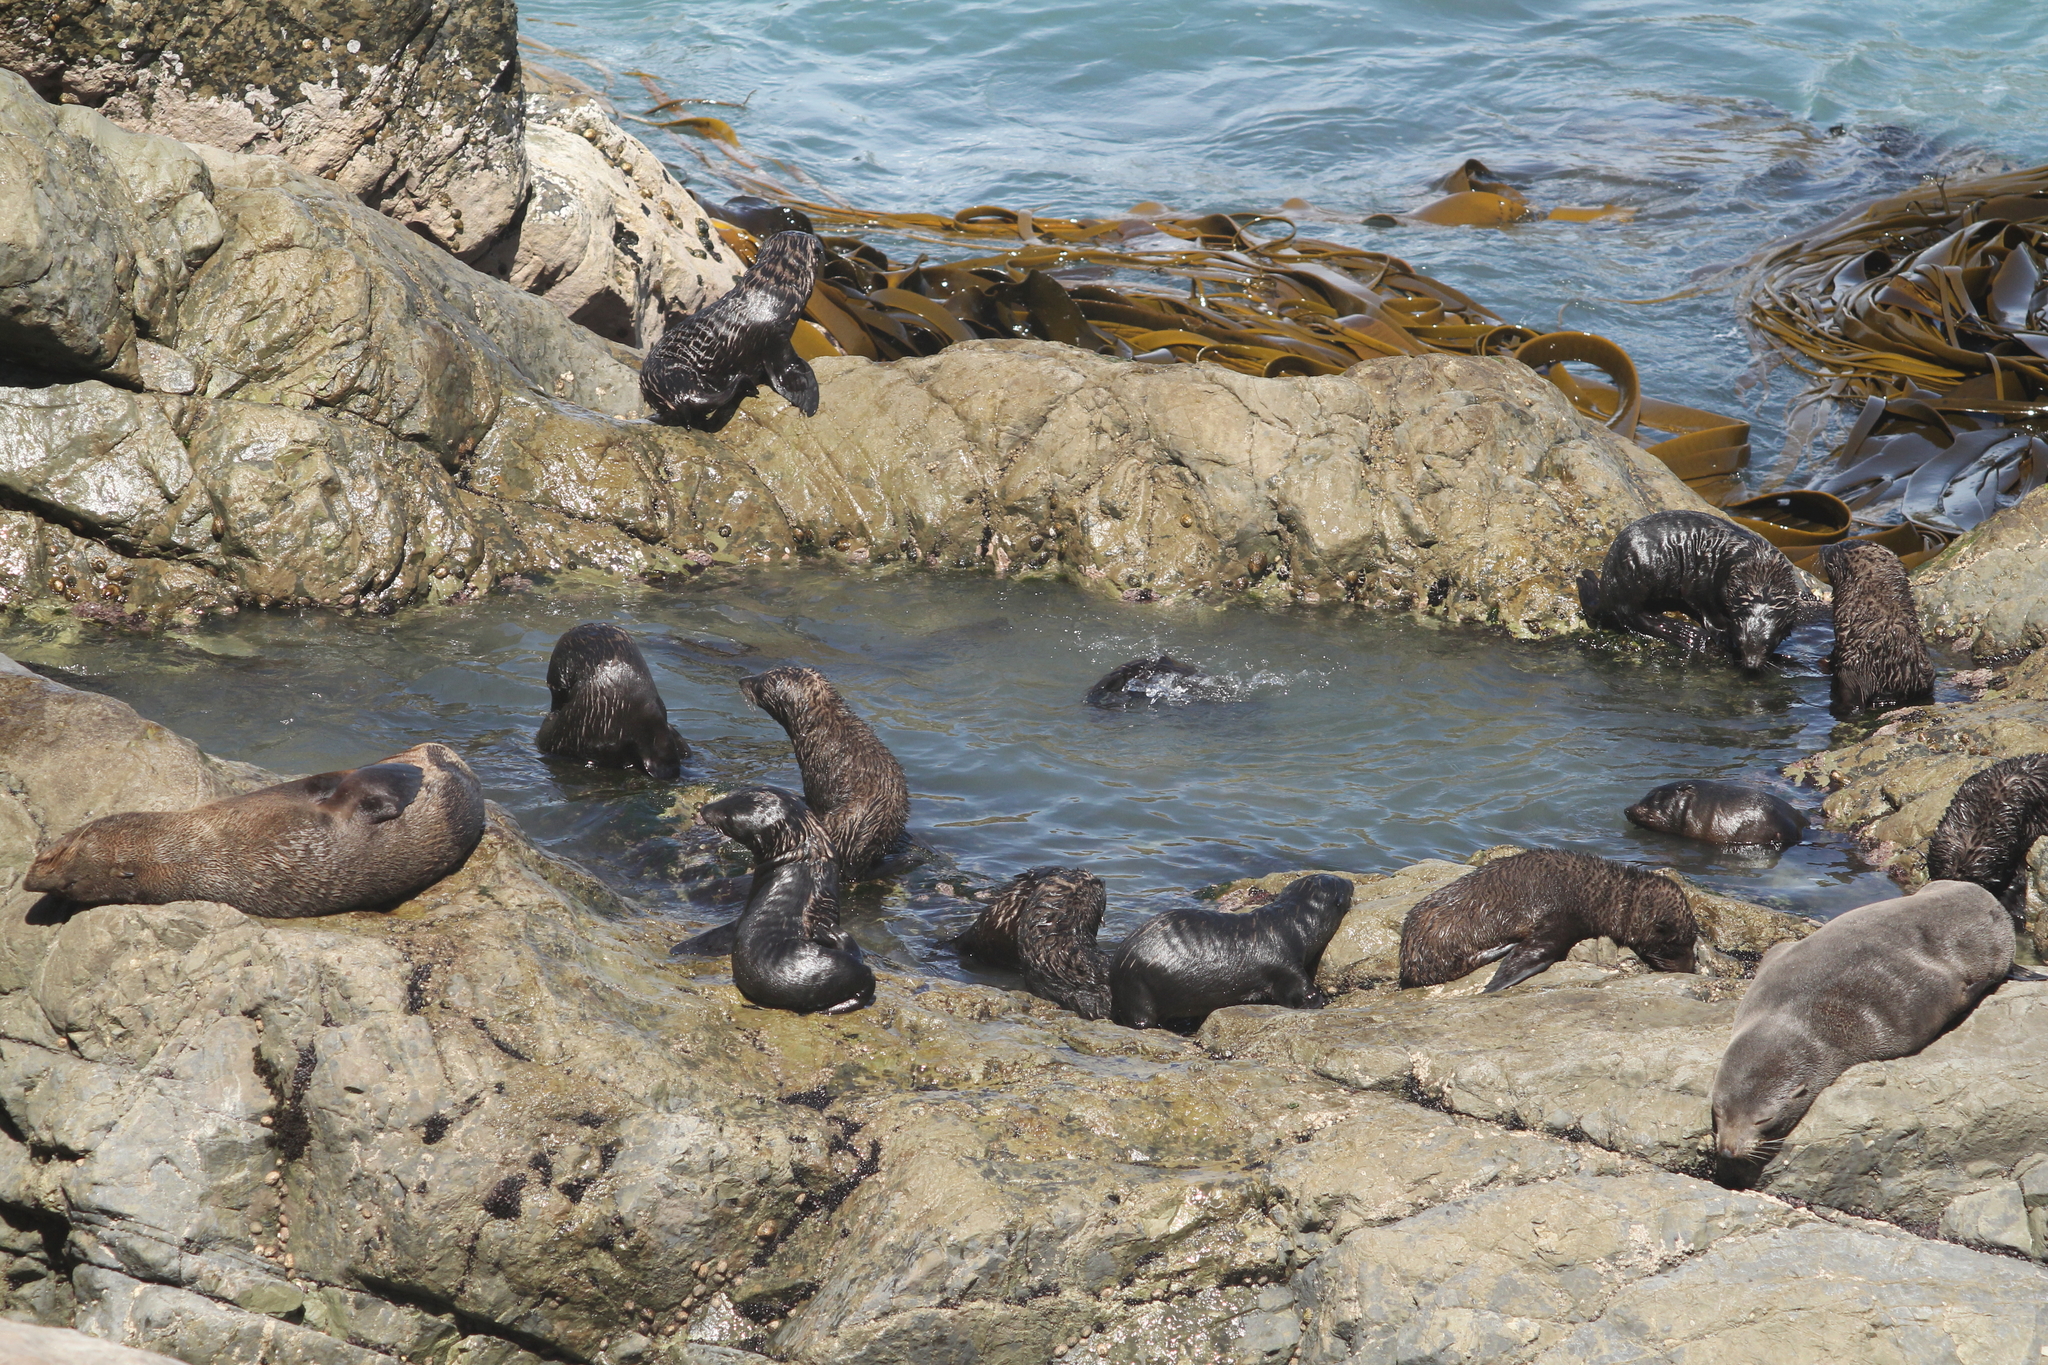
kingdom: Animalia
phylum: Chordata
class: Mammalia
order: Carnivora
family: Otariidae
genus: Arctocephalus
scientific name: Arctocephalus forsteri
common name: New zealand fur seal
